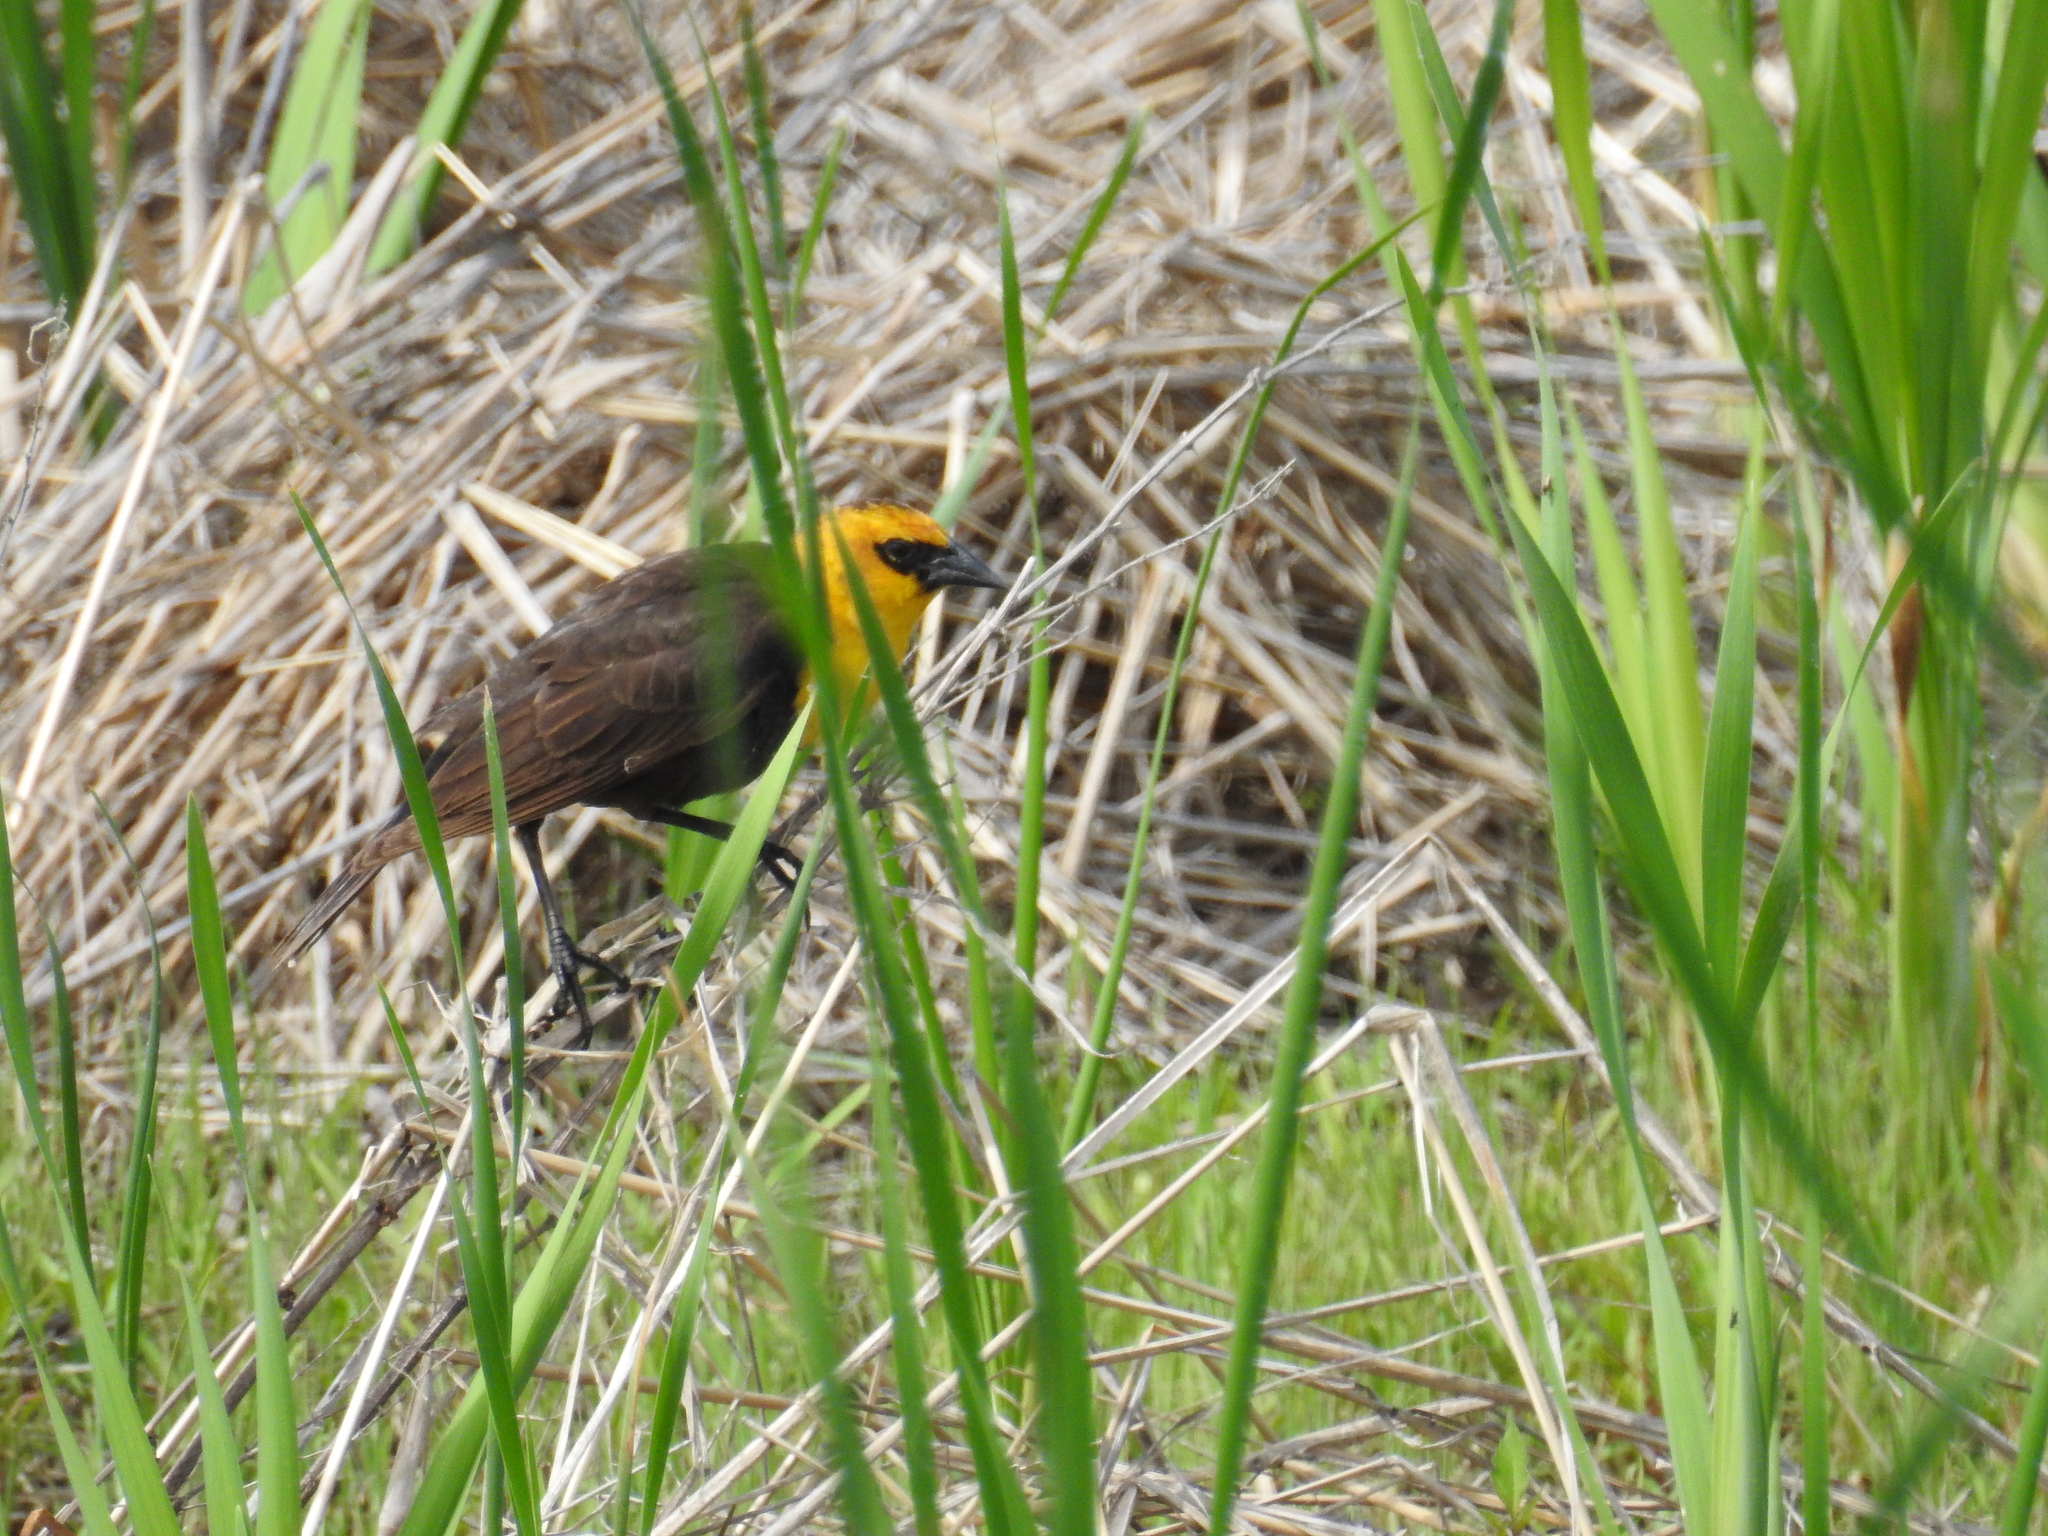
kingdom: Animalia
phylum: Chordata
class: Aves
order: Passeriformes
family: Icteridae
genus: Xanthocephalus
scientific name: Xanthocephalus xanthocephalus
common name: Yellow-headed blackbird
